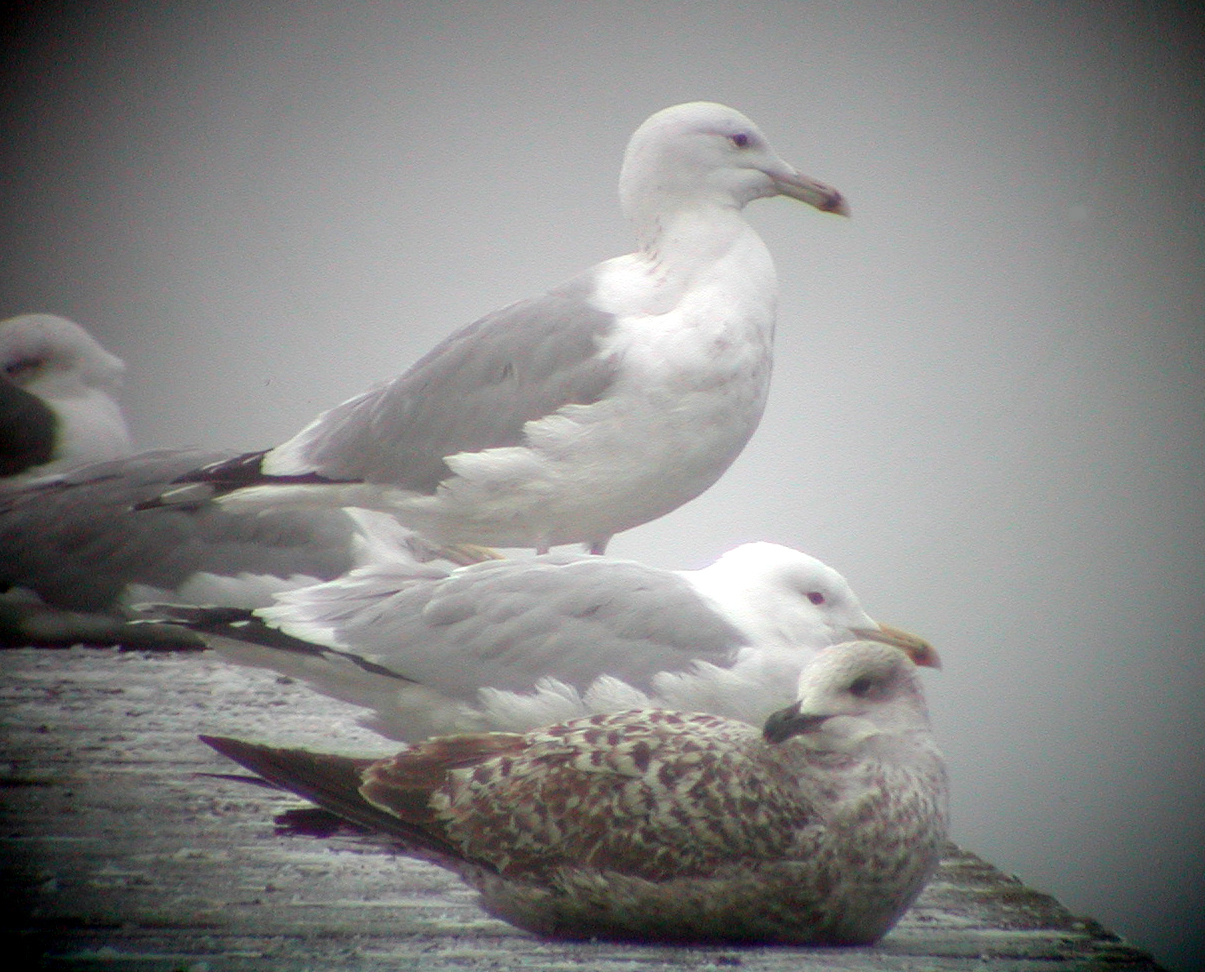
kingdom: Animalia
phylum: Chordata
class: Aves
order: Charadriiformes
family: Laridae
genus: Larus
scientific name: Larus cachinnans
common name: Caspian gull
